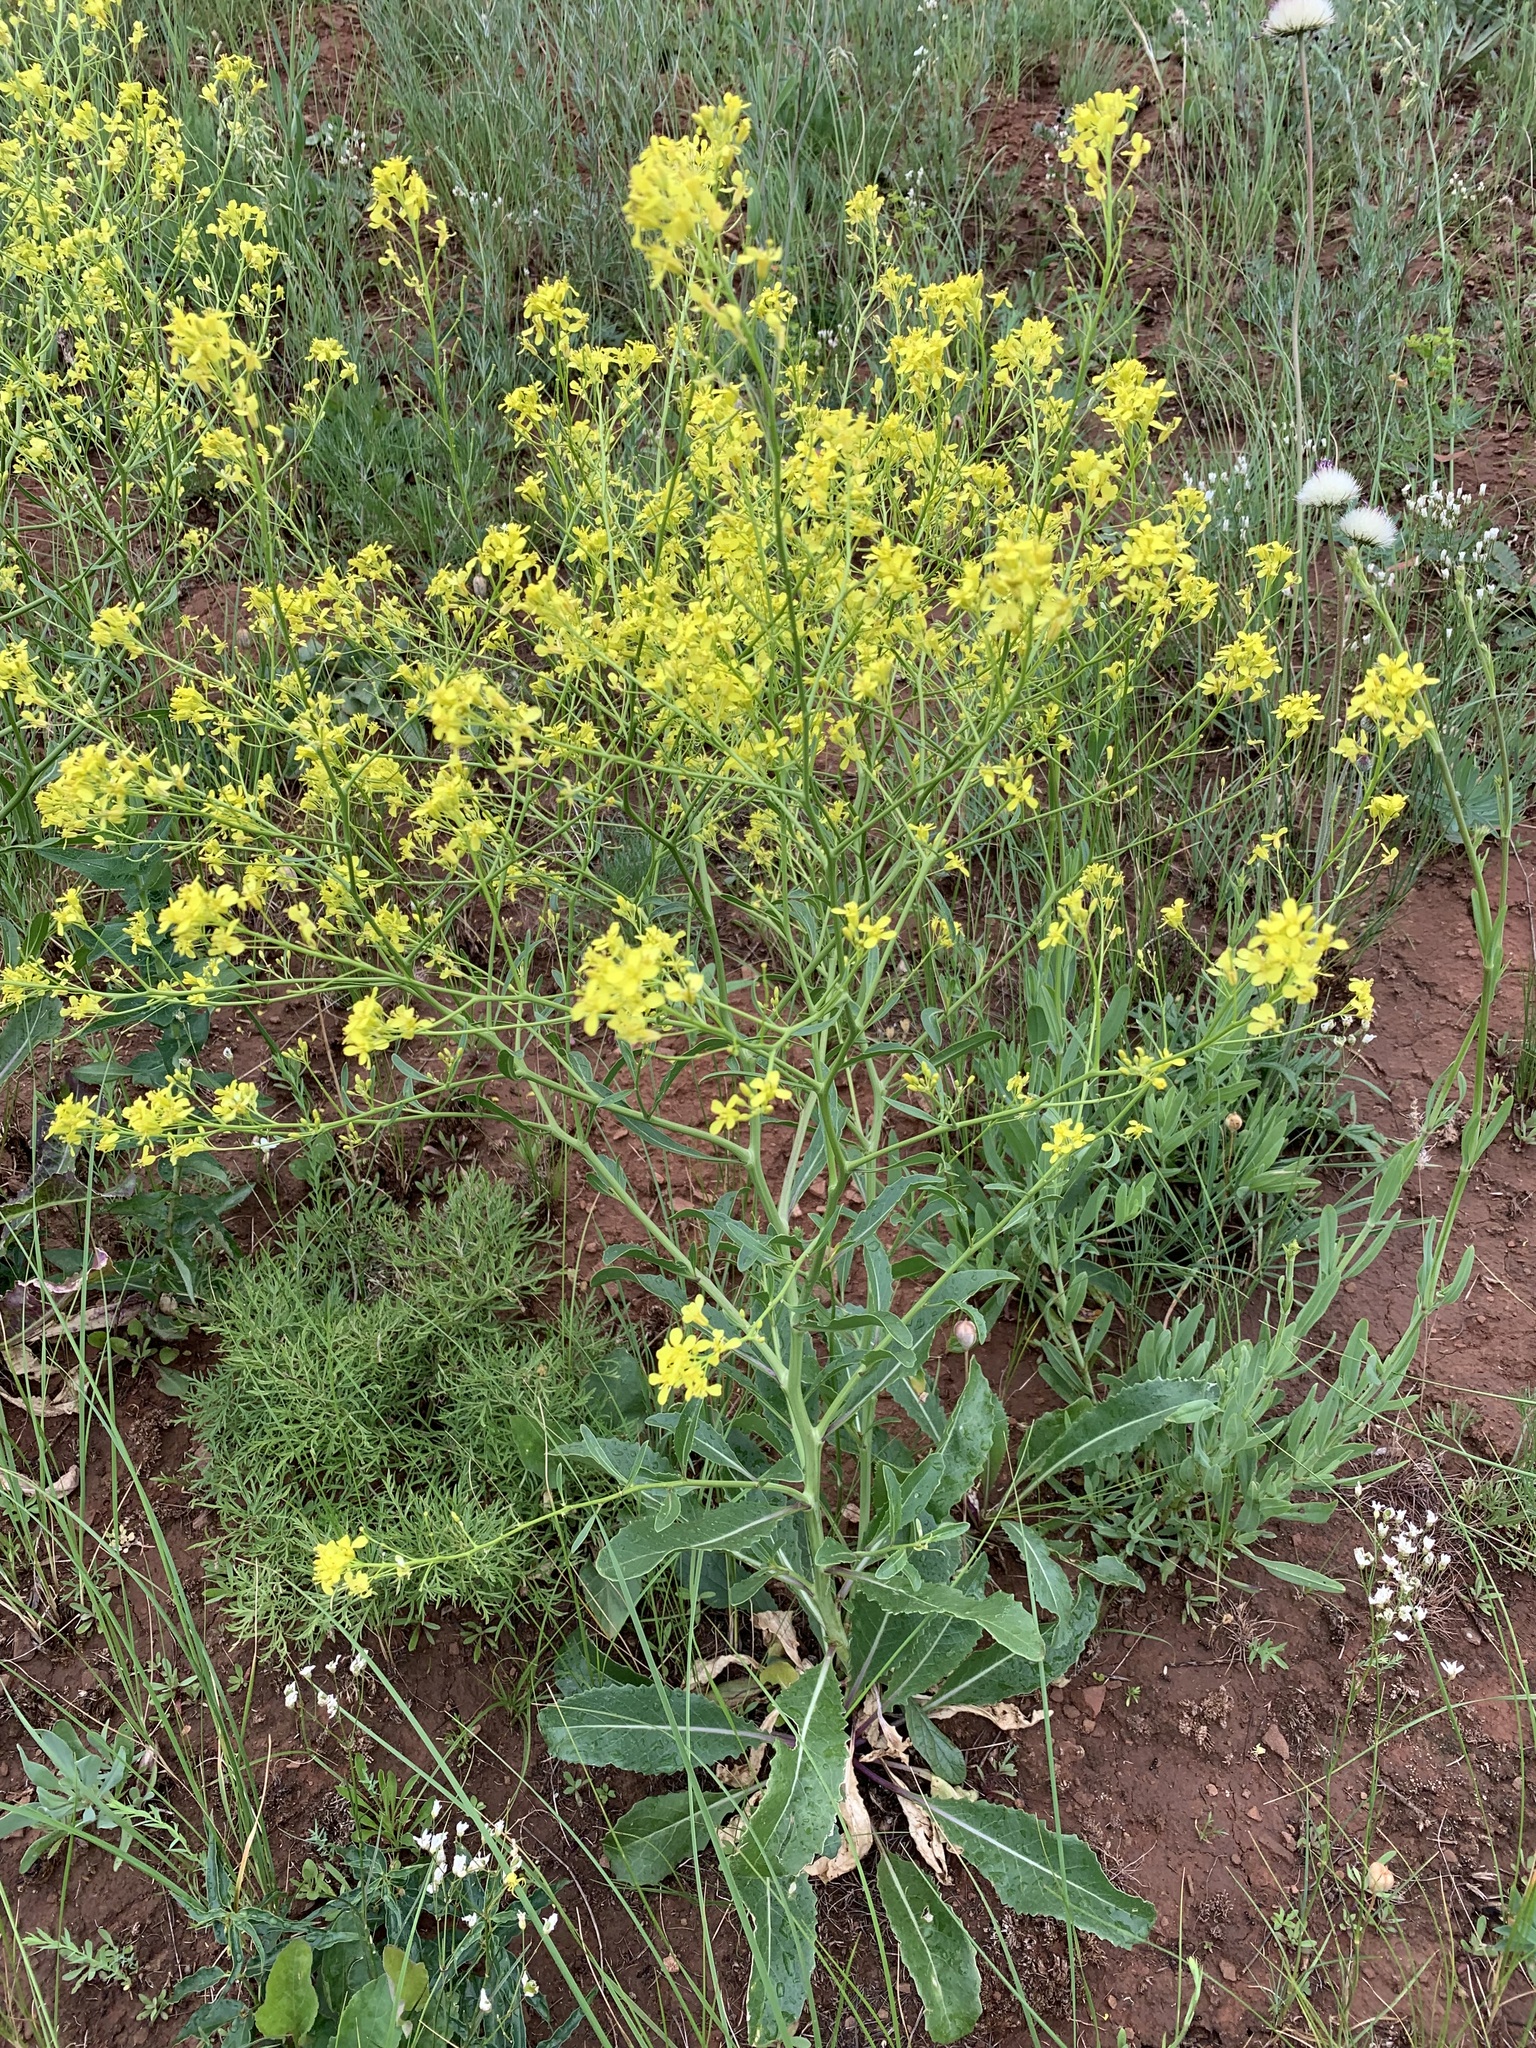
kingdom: Plantae
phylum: Tracheophyta
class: Magnoliopsida
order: Brassicales
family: Brassicaceae
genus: Brassica
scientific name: Brassica elongata
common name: Long-stalked rape
